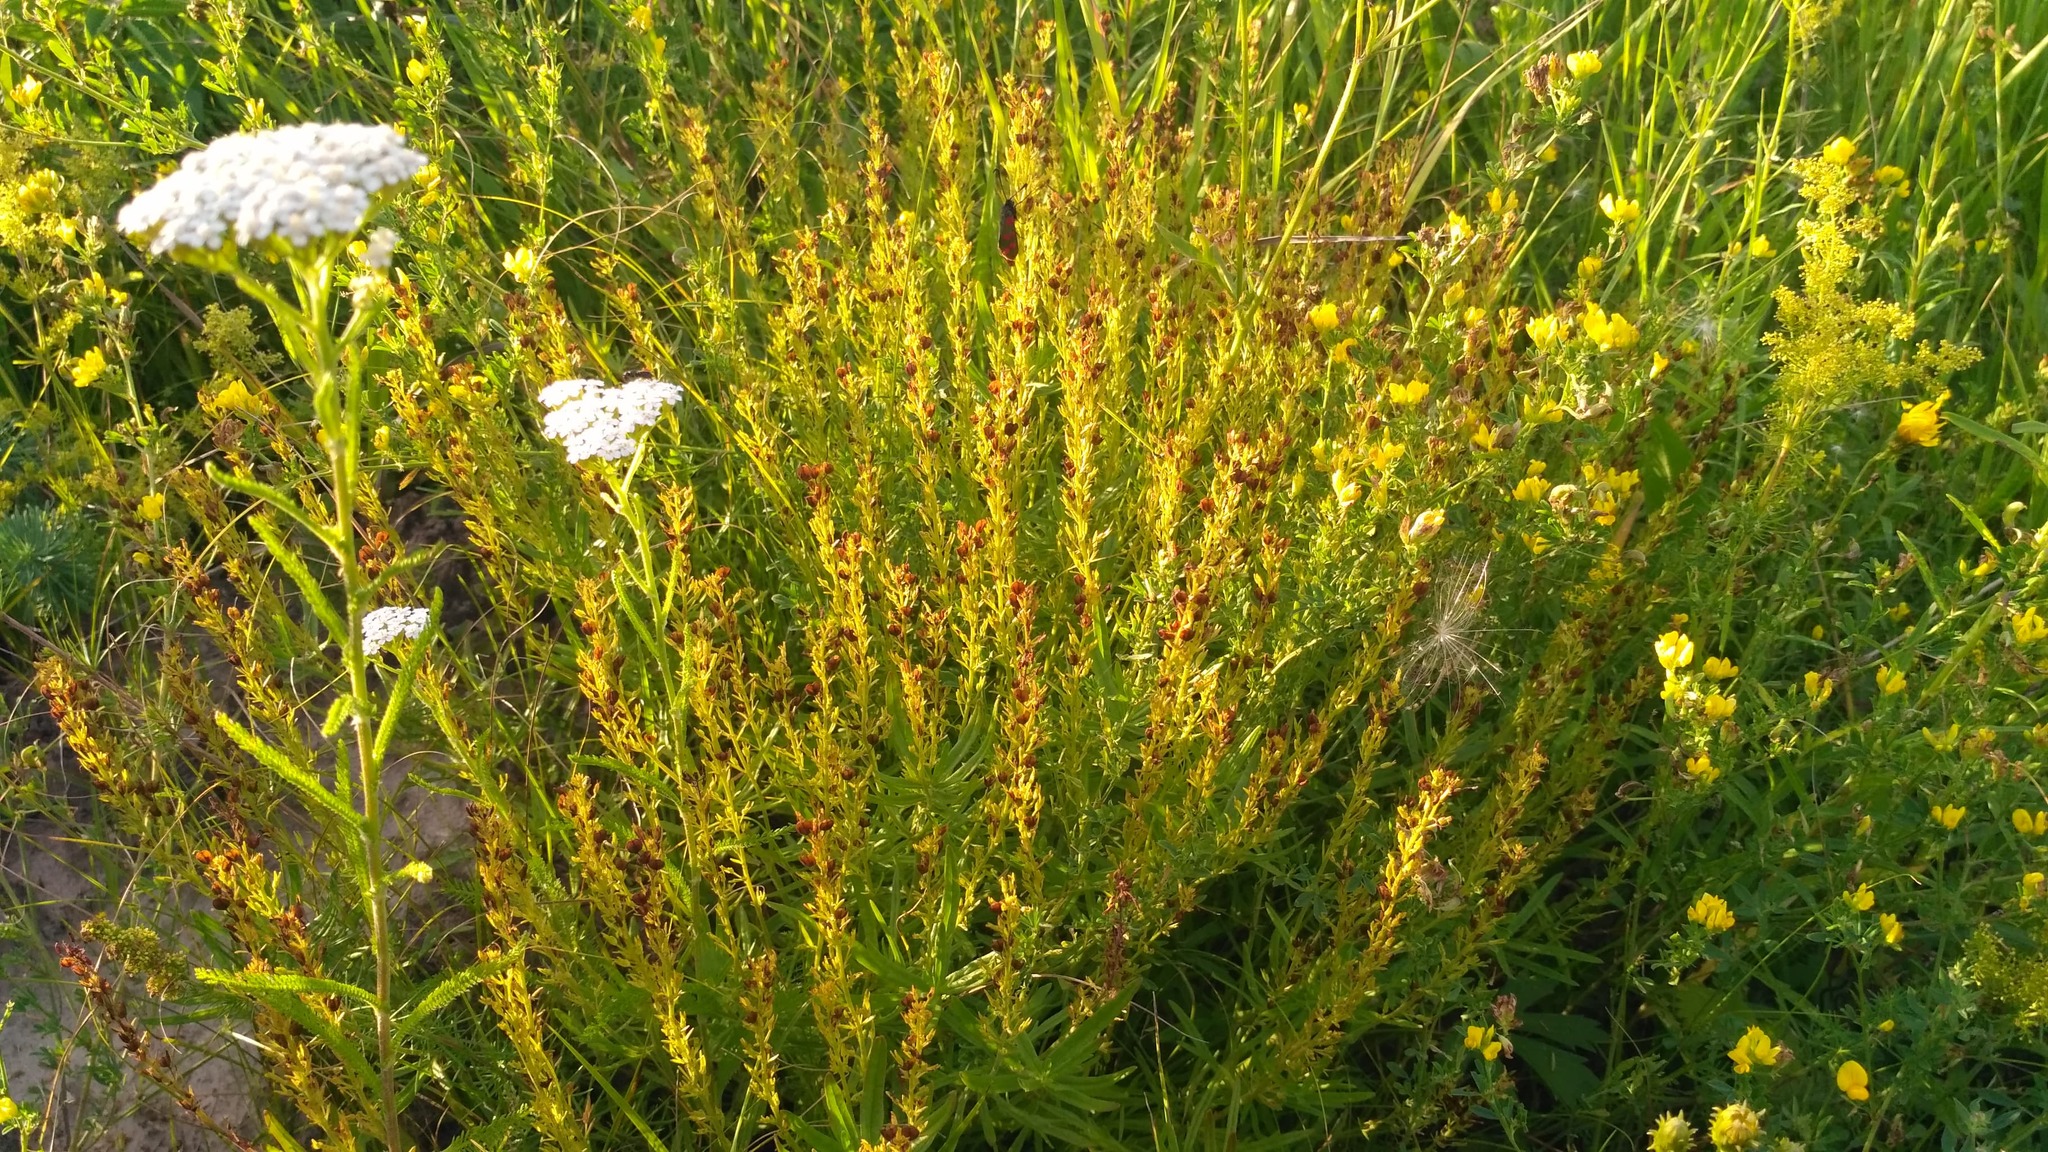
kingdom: Plantae
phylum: Tracheophyta
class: Magnoliopsida
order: Lamiales
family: Plantaginaceae
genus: Veronica
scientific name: Veronica austriaca
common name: Large speedwell
